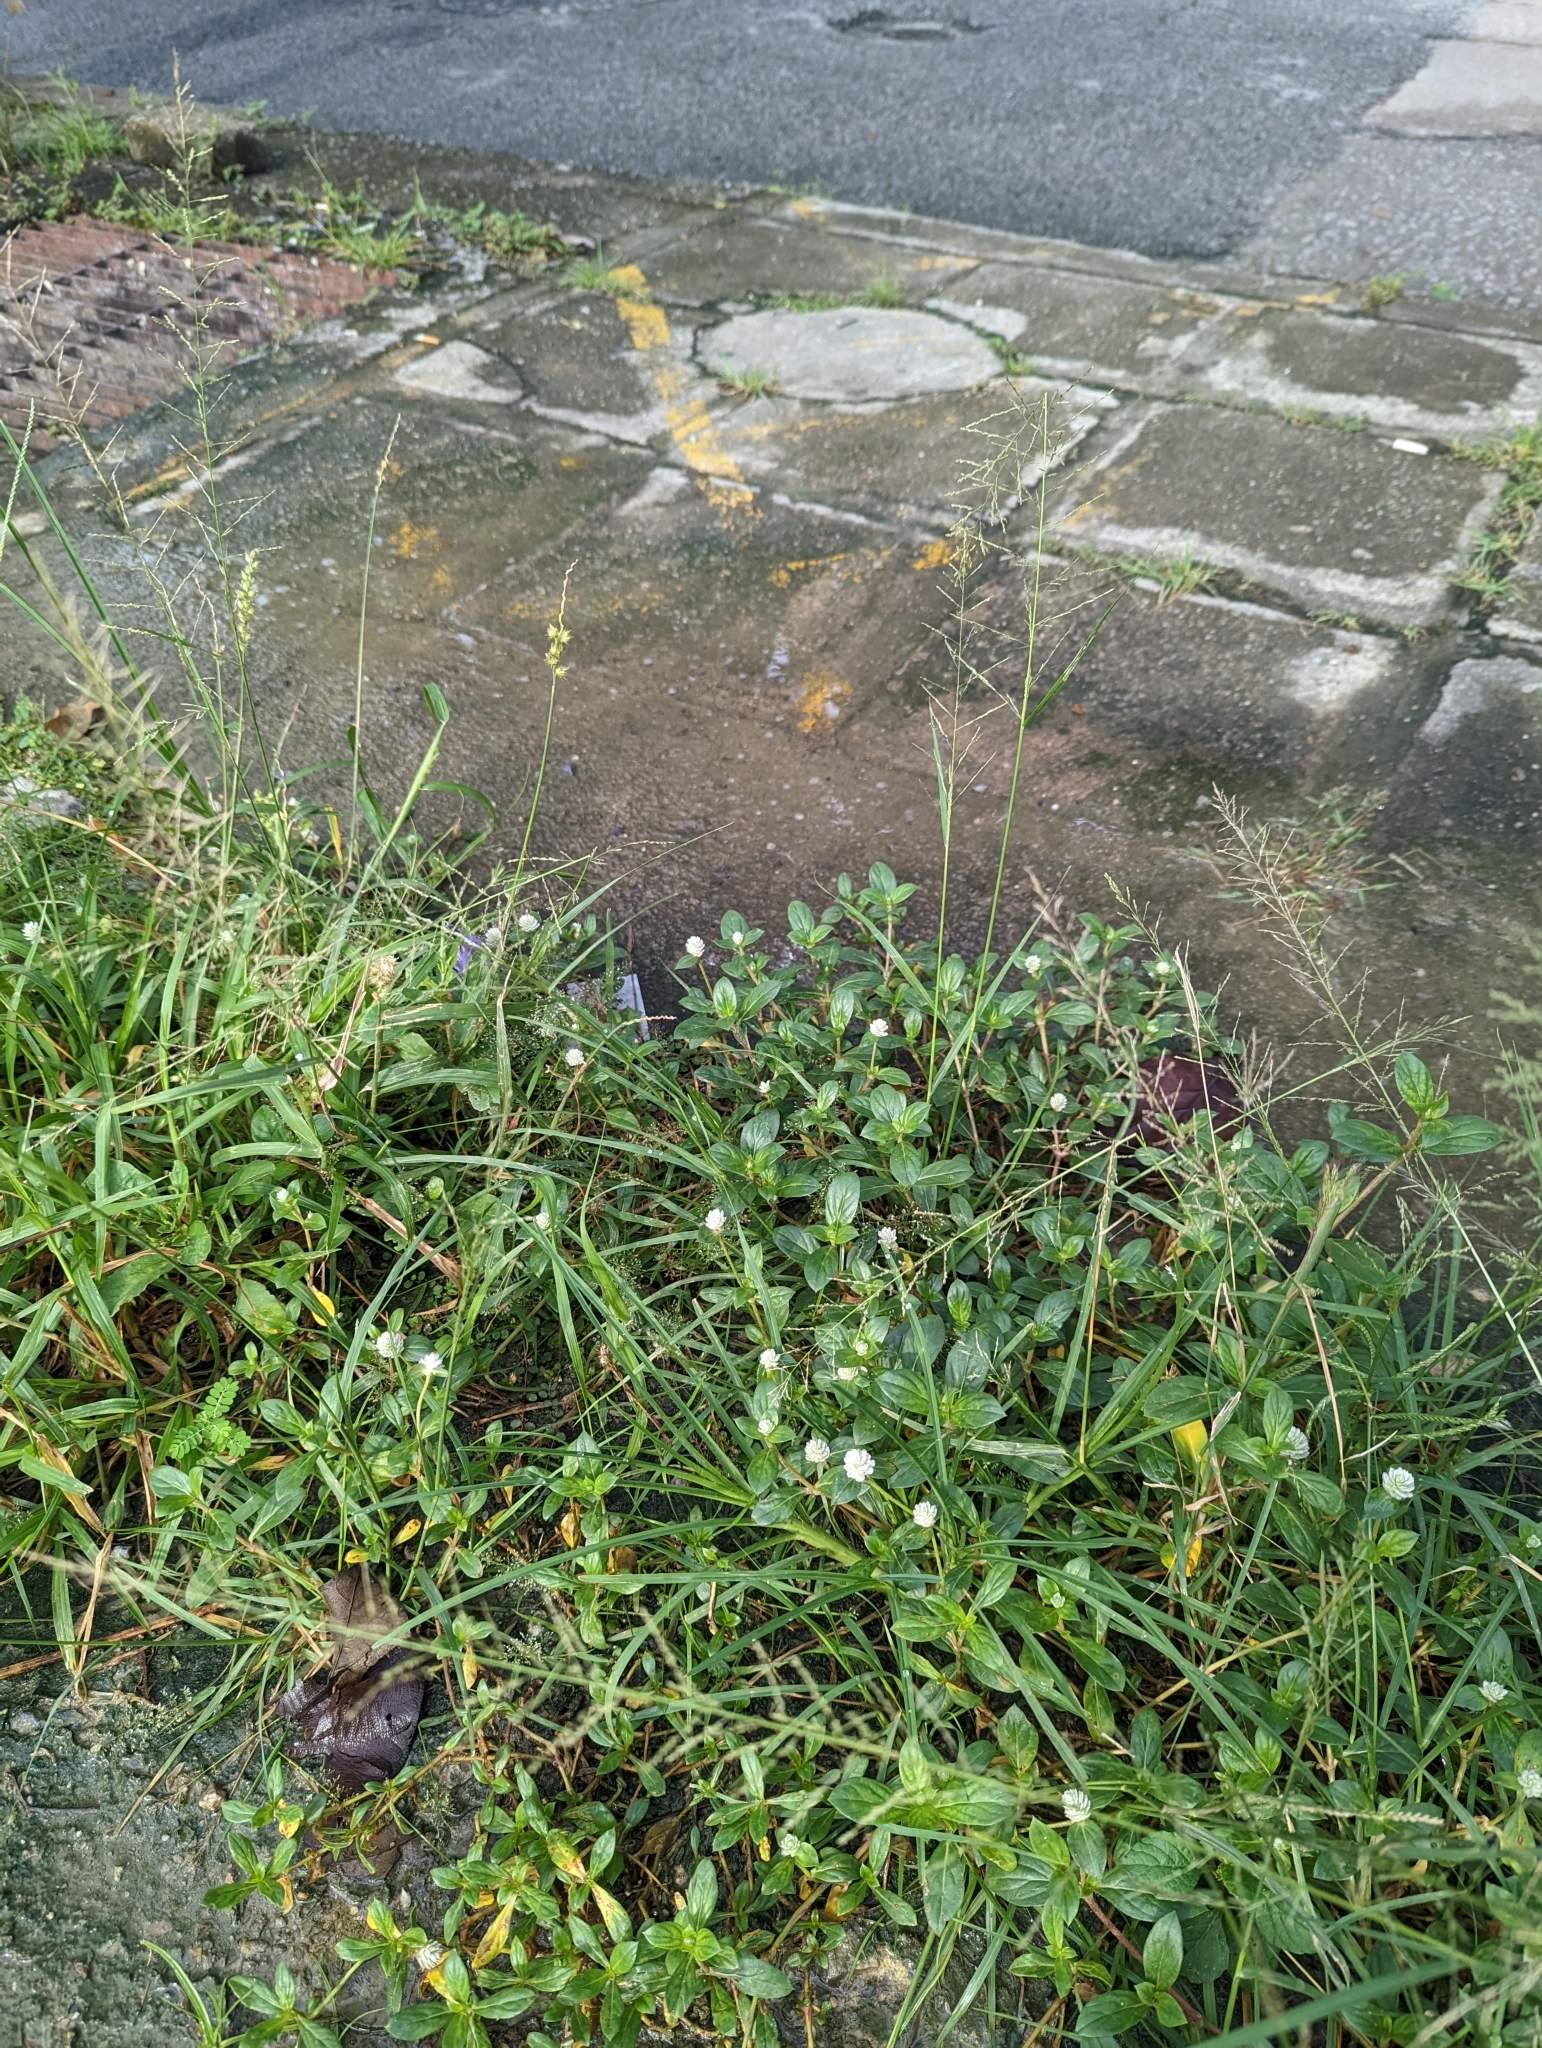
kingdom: Plantae
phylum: Tracheophyta
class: Magnoliopsida
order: Caryophyllales
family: Amaranthaceae
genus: Gomphrena
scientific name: Gomphrena serrata
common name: Arrasa con todo
